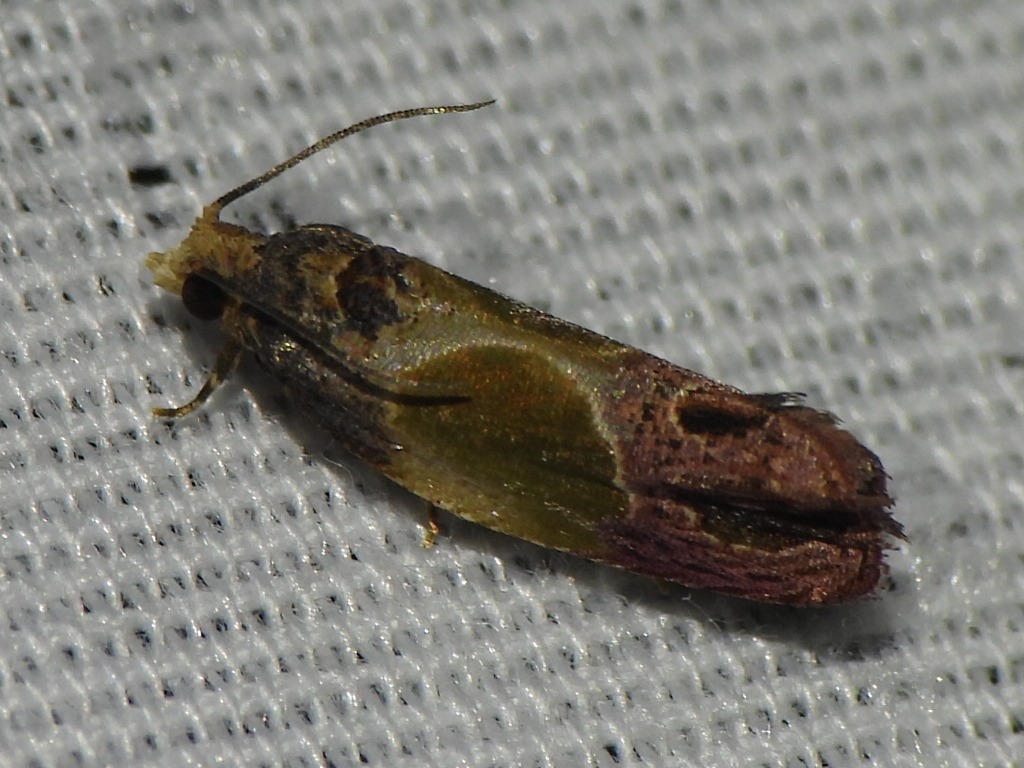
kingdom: Animalia
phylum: Arthropoda
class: Insecta
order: Lepidoptera
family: Tortricidae
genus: Eumarozia
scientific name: Eumarozia malachitana
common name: Sculptured moth
